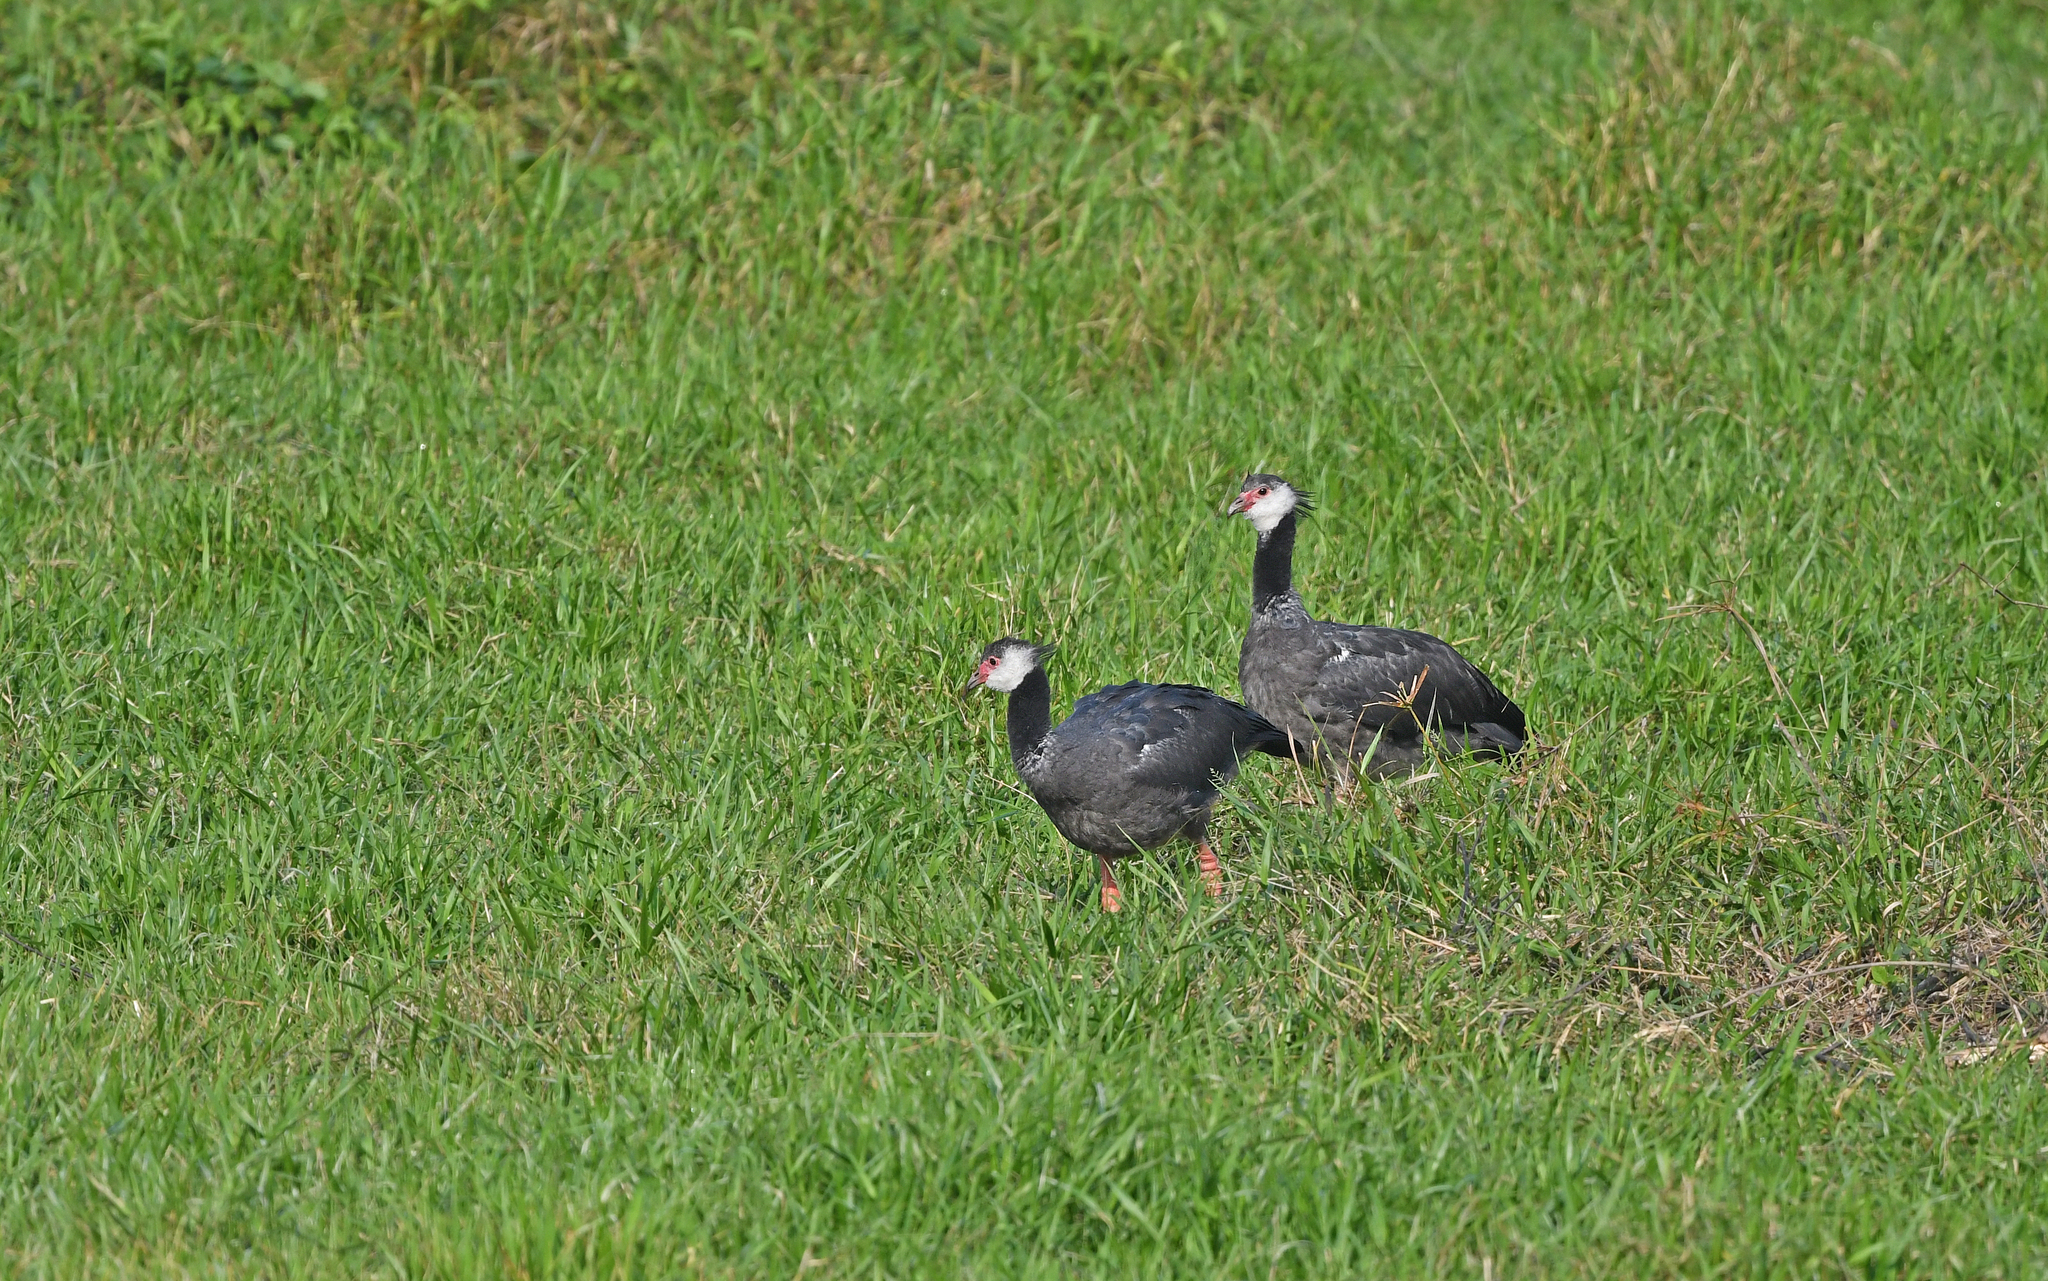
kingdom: Animalia
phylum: Chordata
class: Aves
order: Anseriformes
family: Anhimidae
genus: Chauna
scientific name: Chauna chavaria
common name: Northern screamer
